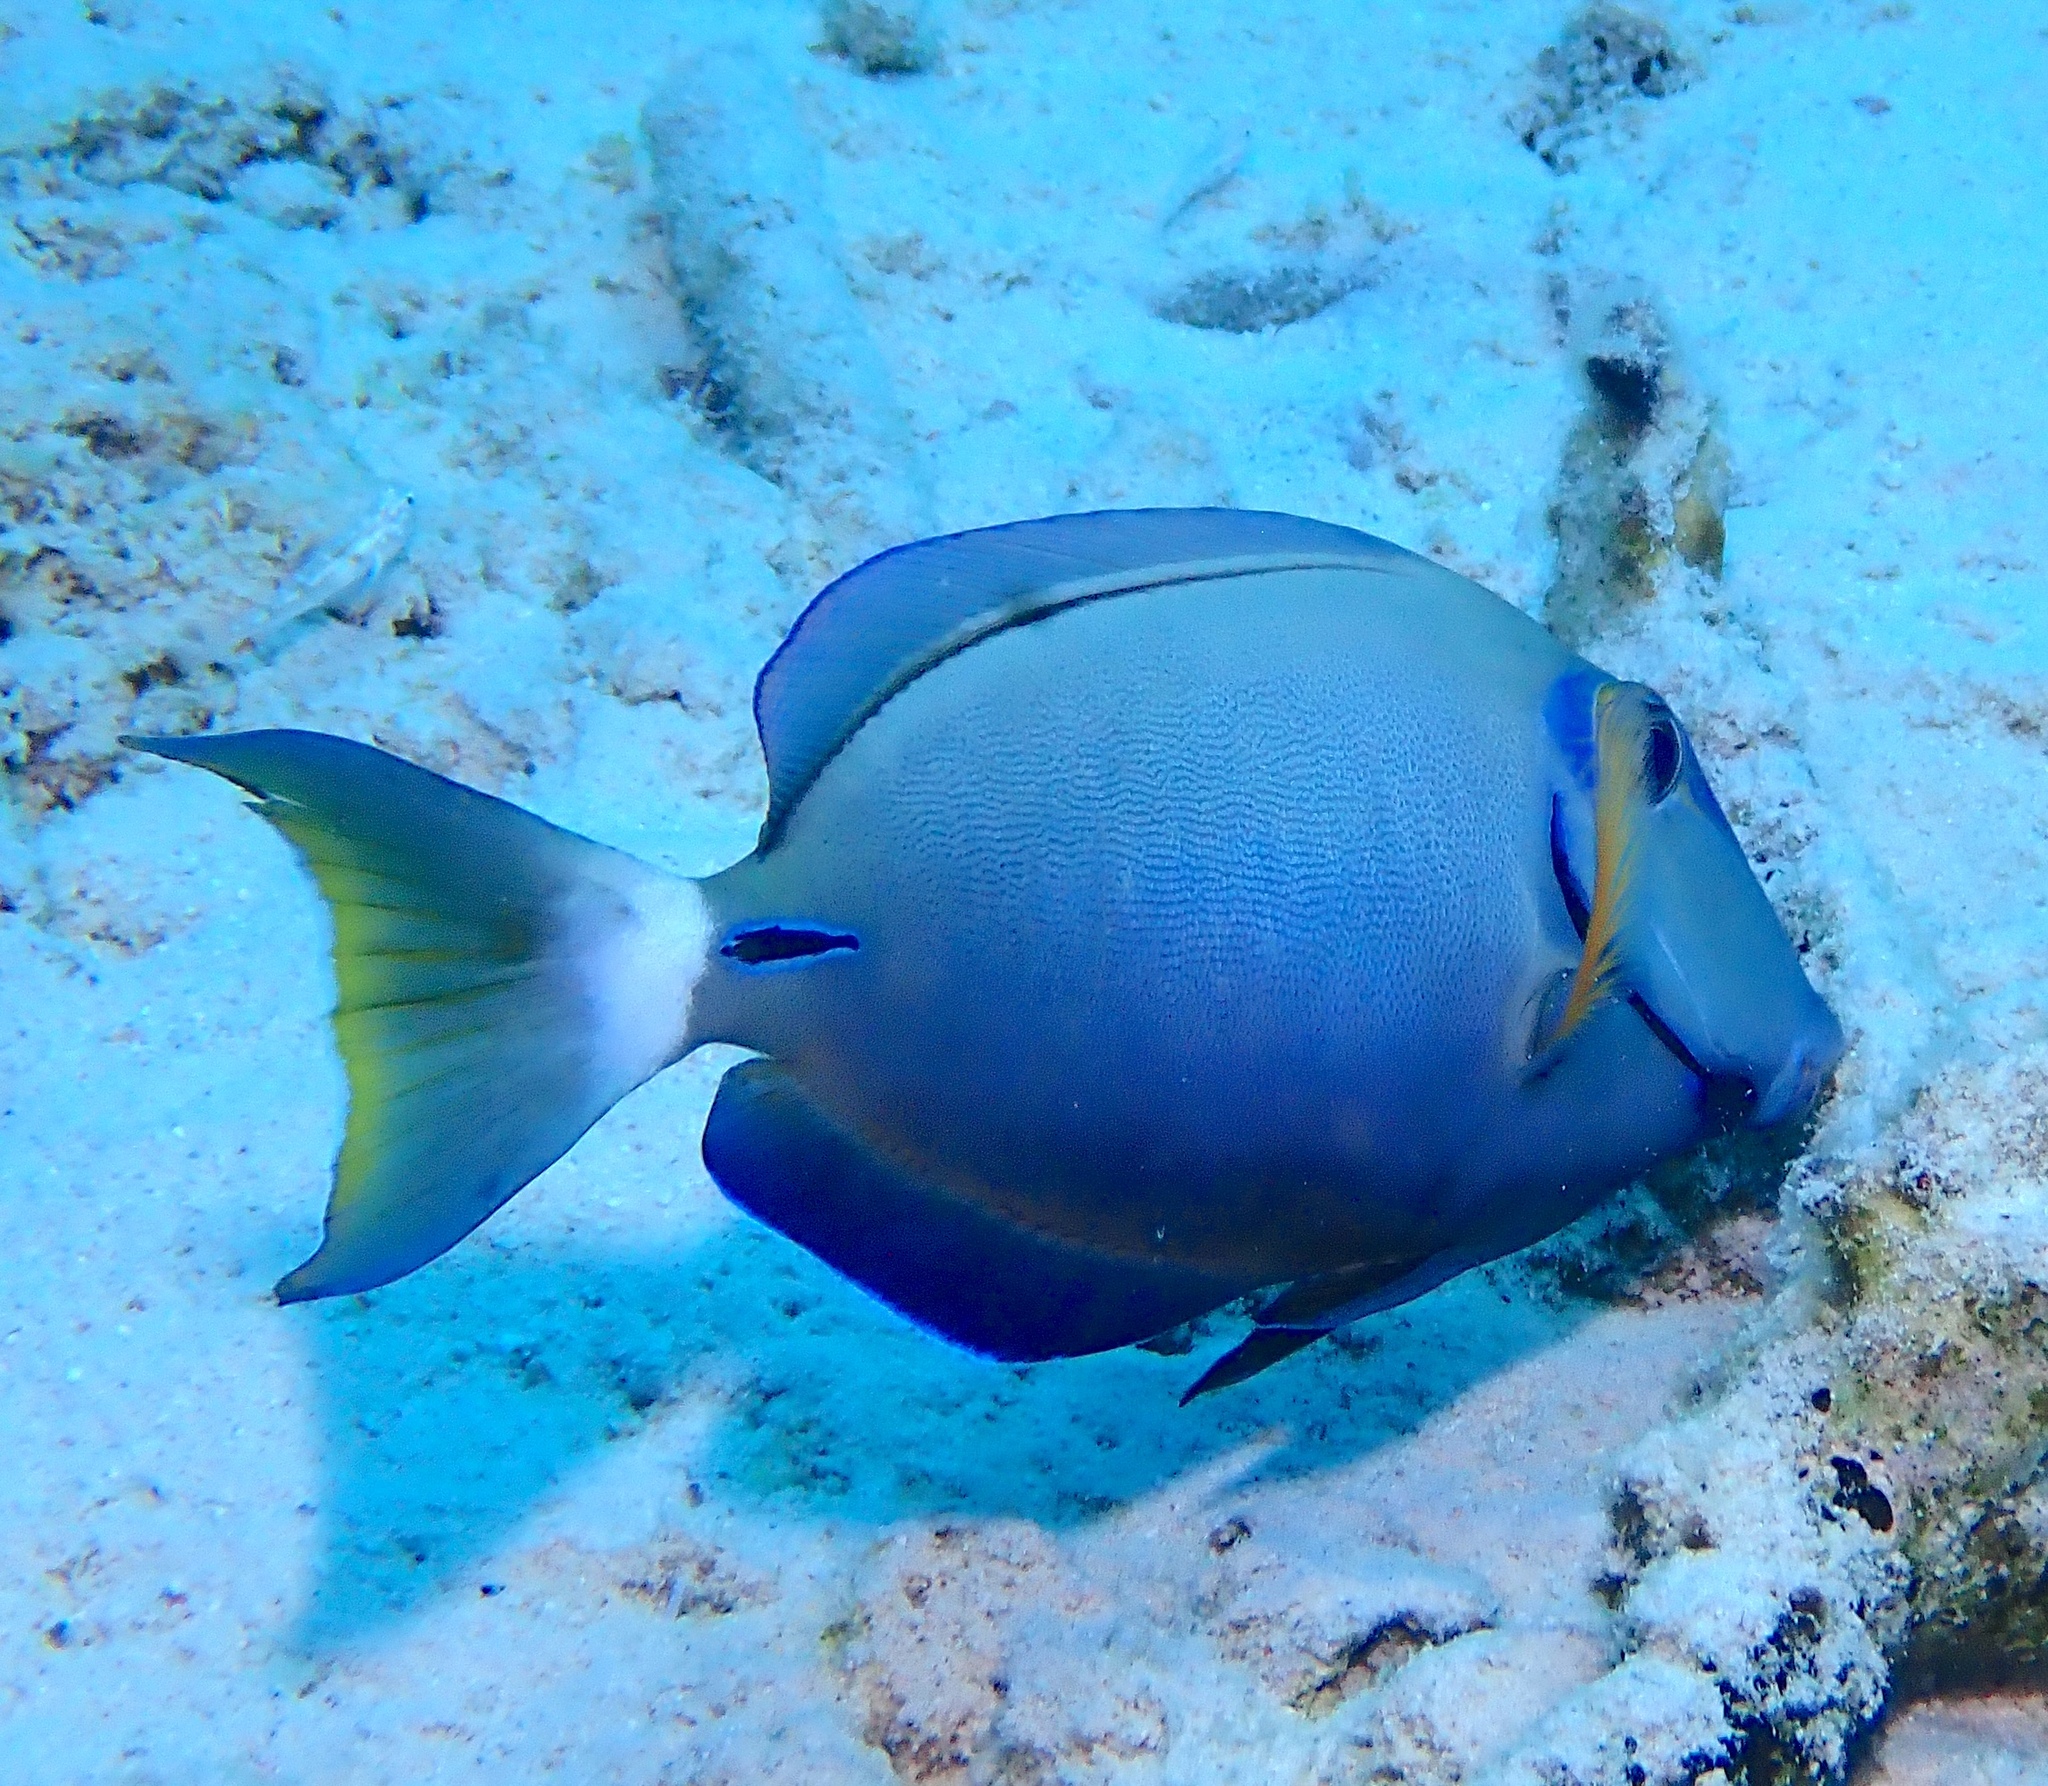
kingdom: Animalia
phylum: Chordata
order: Perciformes
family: Acanthuridae
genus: Acanthurus
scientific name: Acanthurus bahianus
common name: Ocean surgeon
